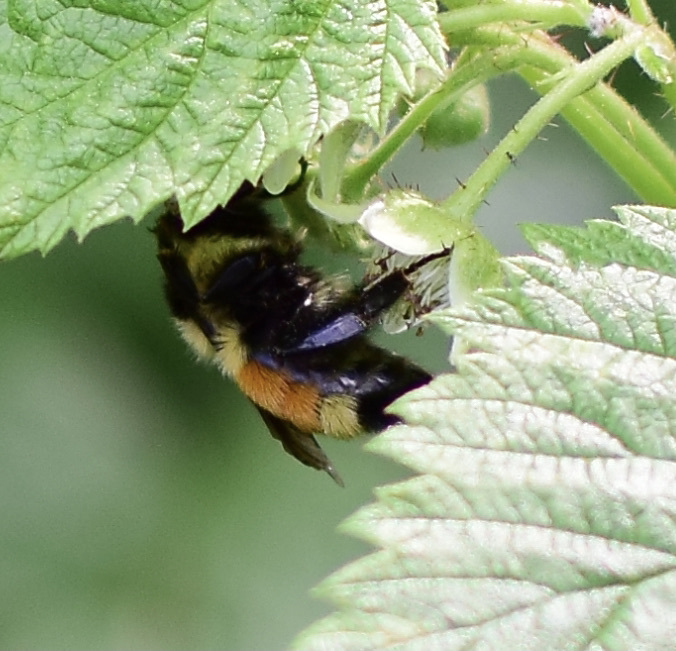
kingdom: Animalia
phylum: Arthropoda
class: Insecta
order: Hymenoptera
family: Apidae
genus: Bombus
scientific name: Bombus ternarius
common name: Tri-colored bumble bee
